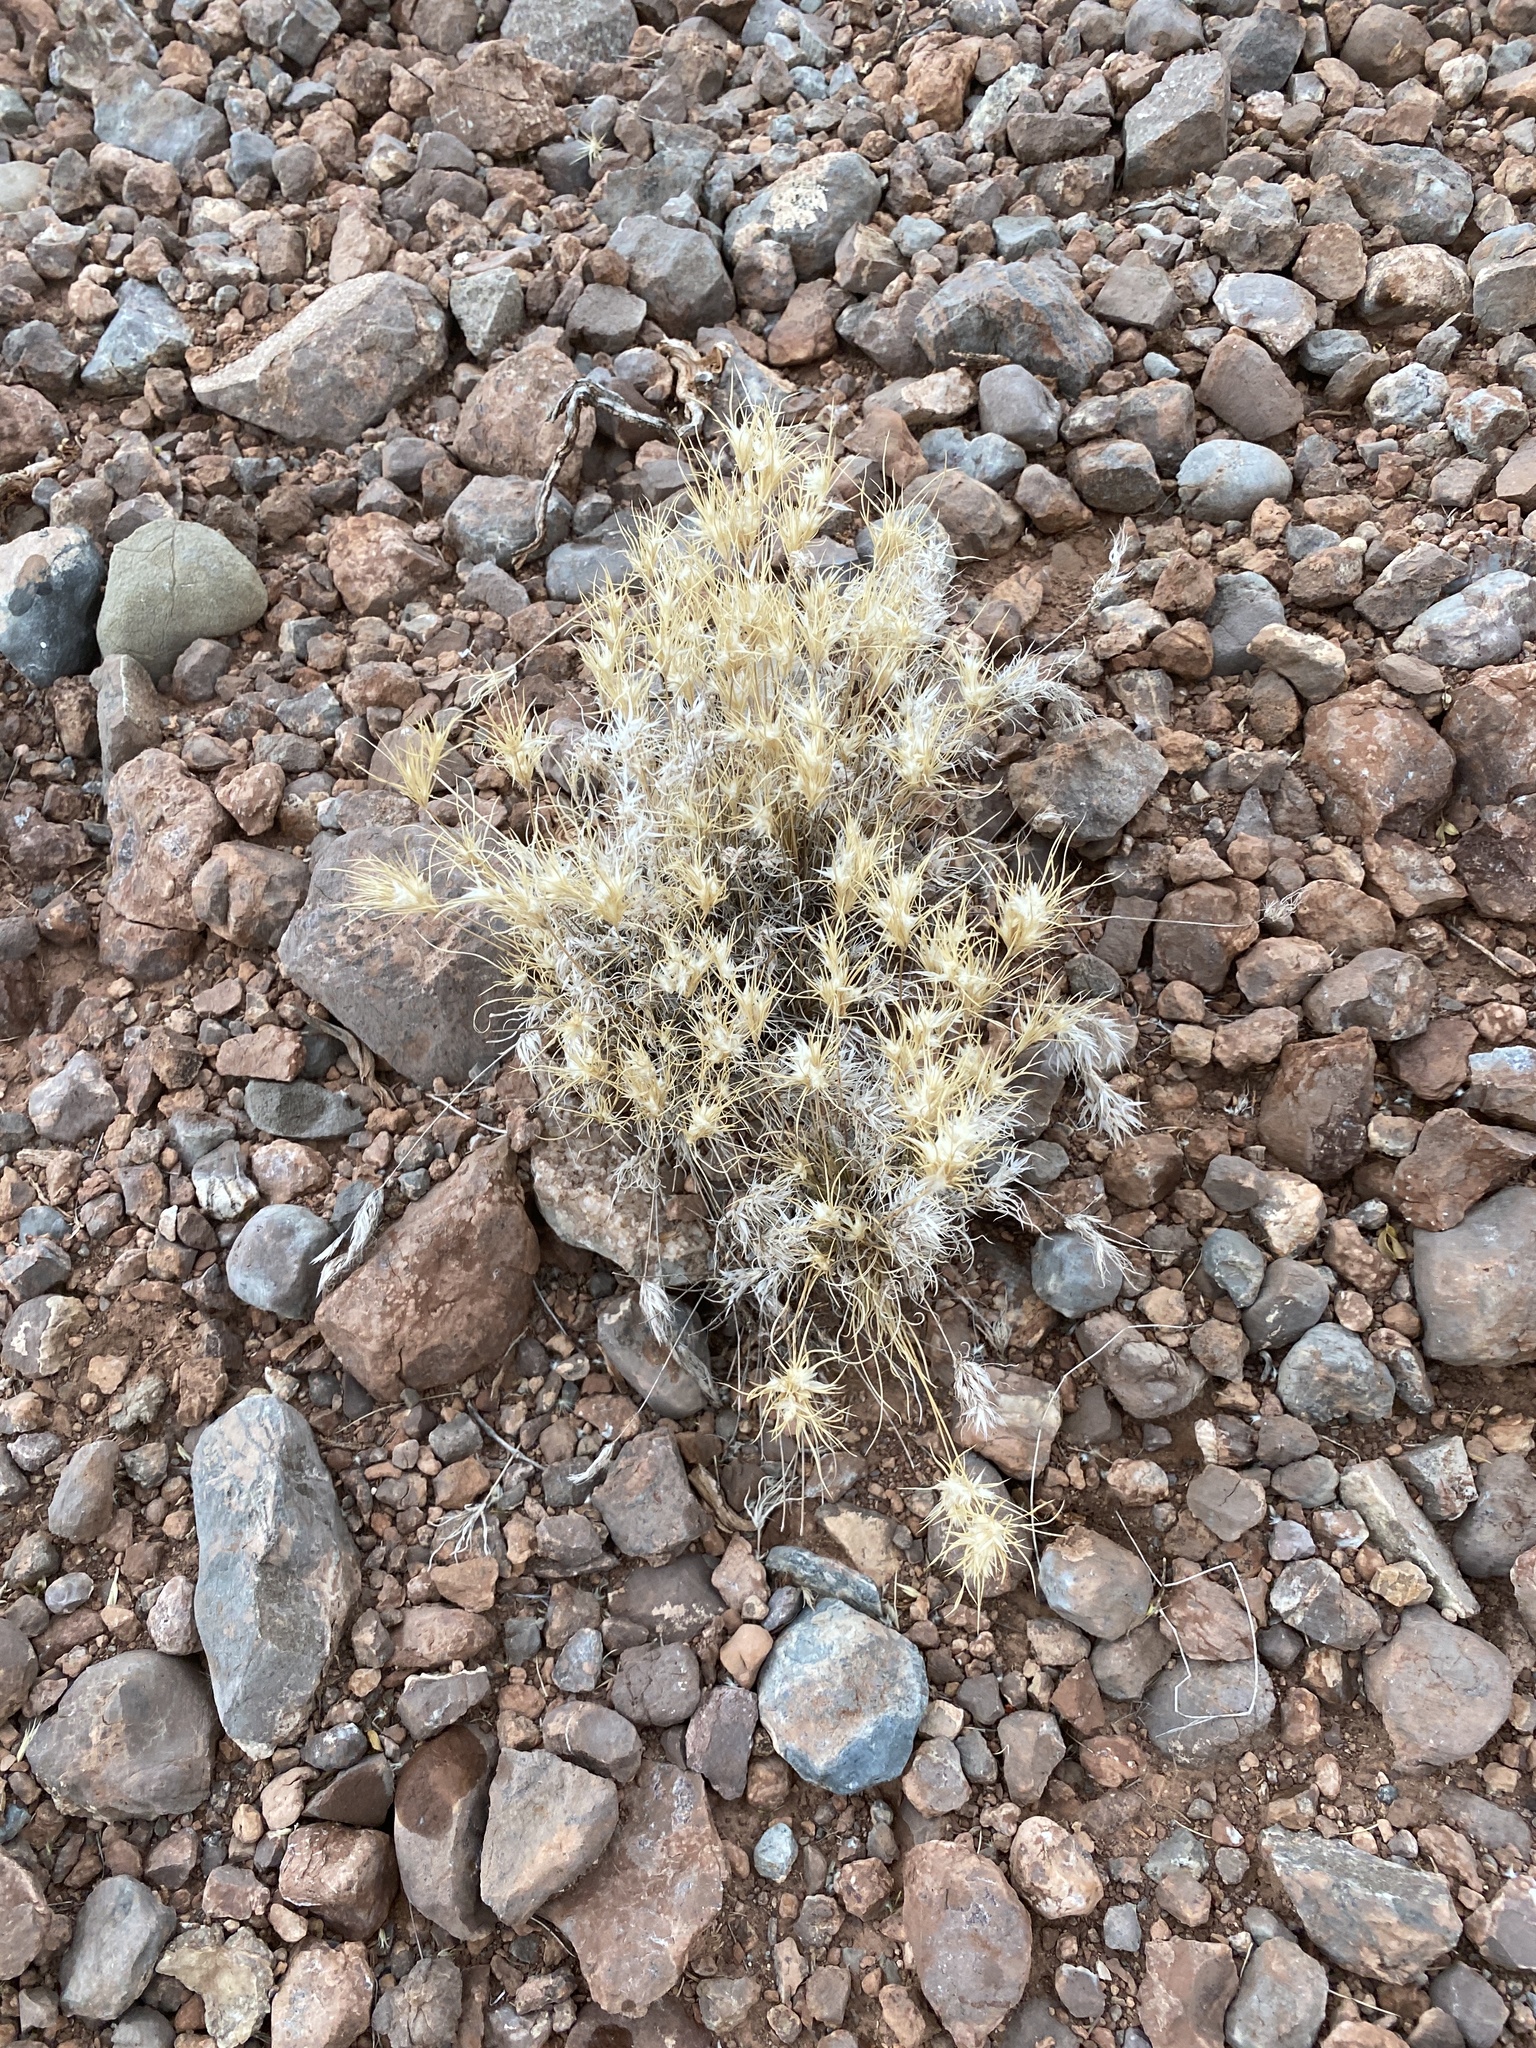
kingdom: Plantae
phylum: Tracheophyta
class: Liliopsida
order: Poales
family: Poaceae
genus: Dasyochloa
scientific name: Dasyochloa pulchella
